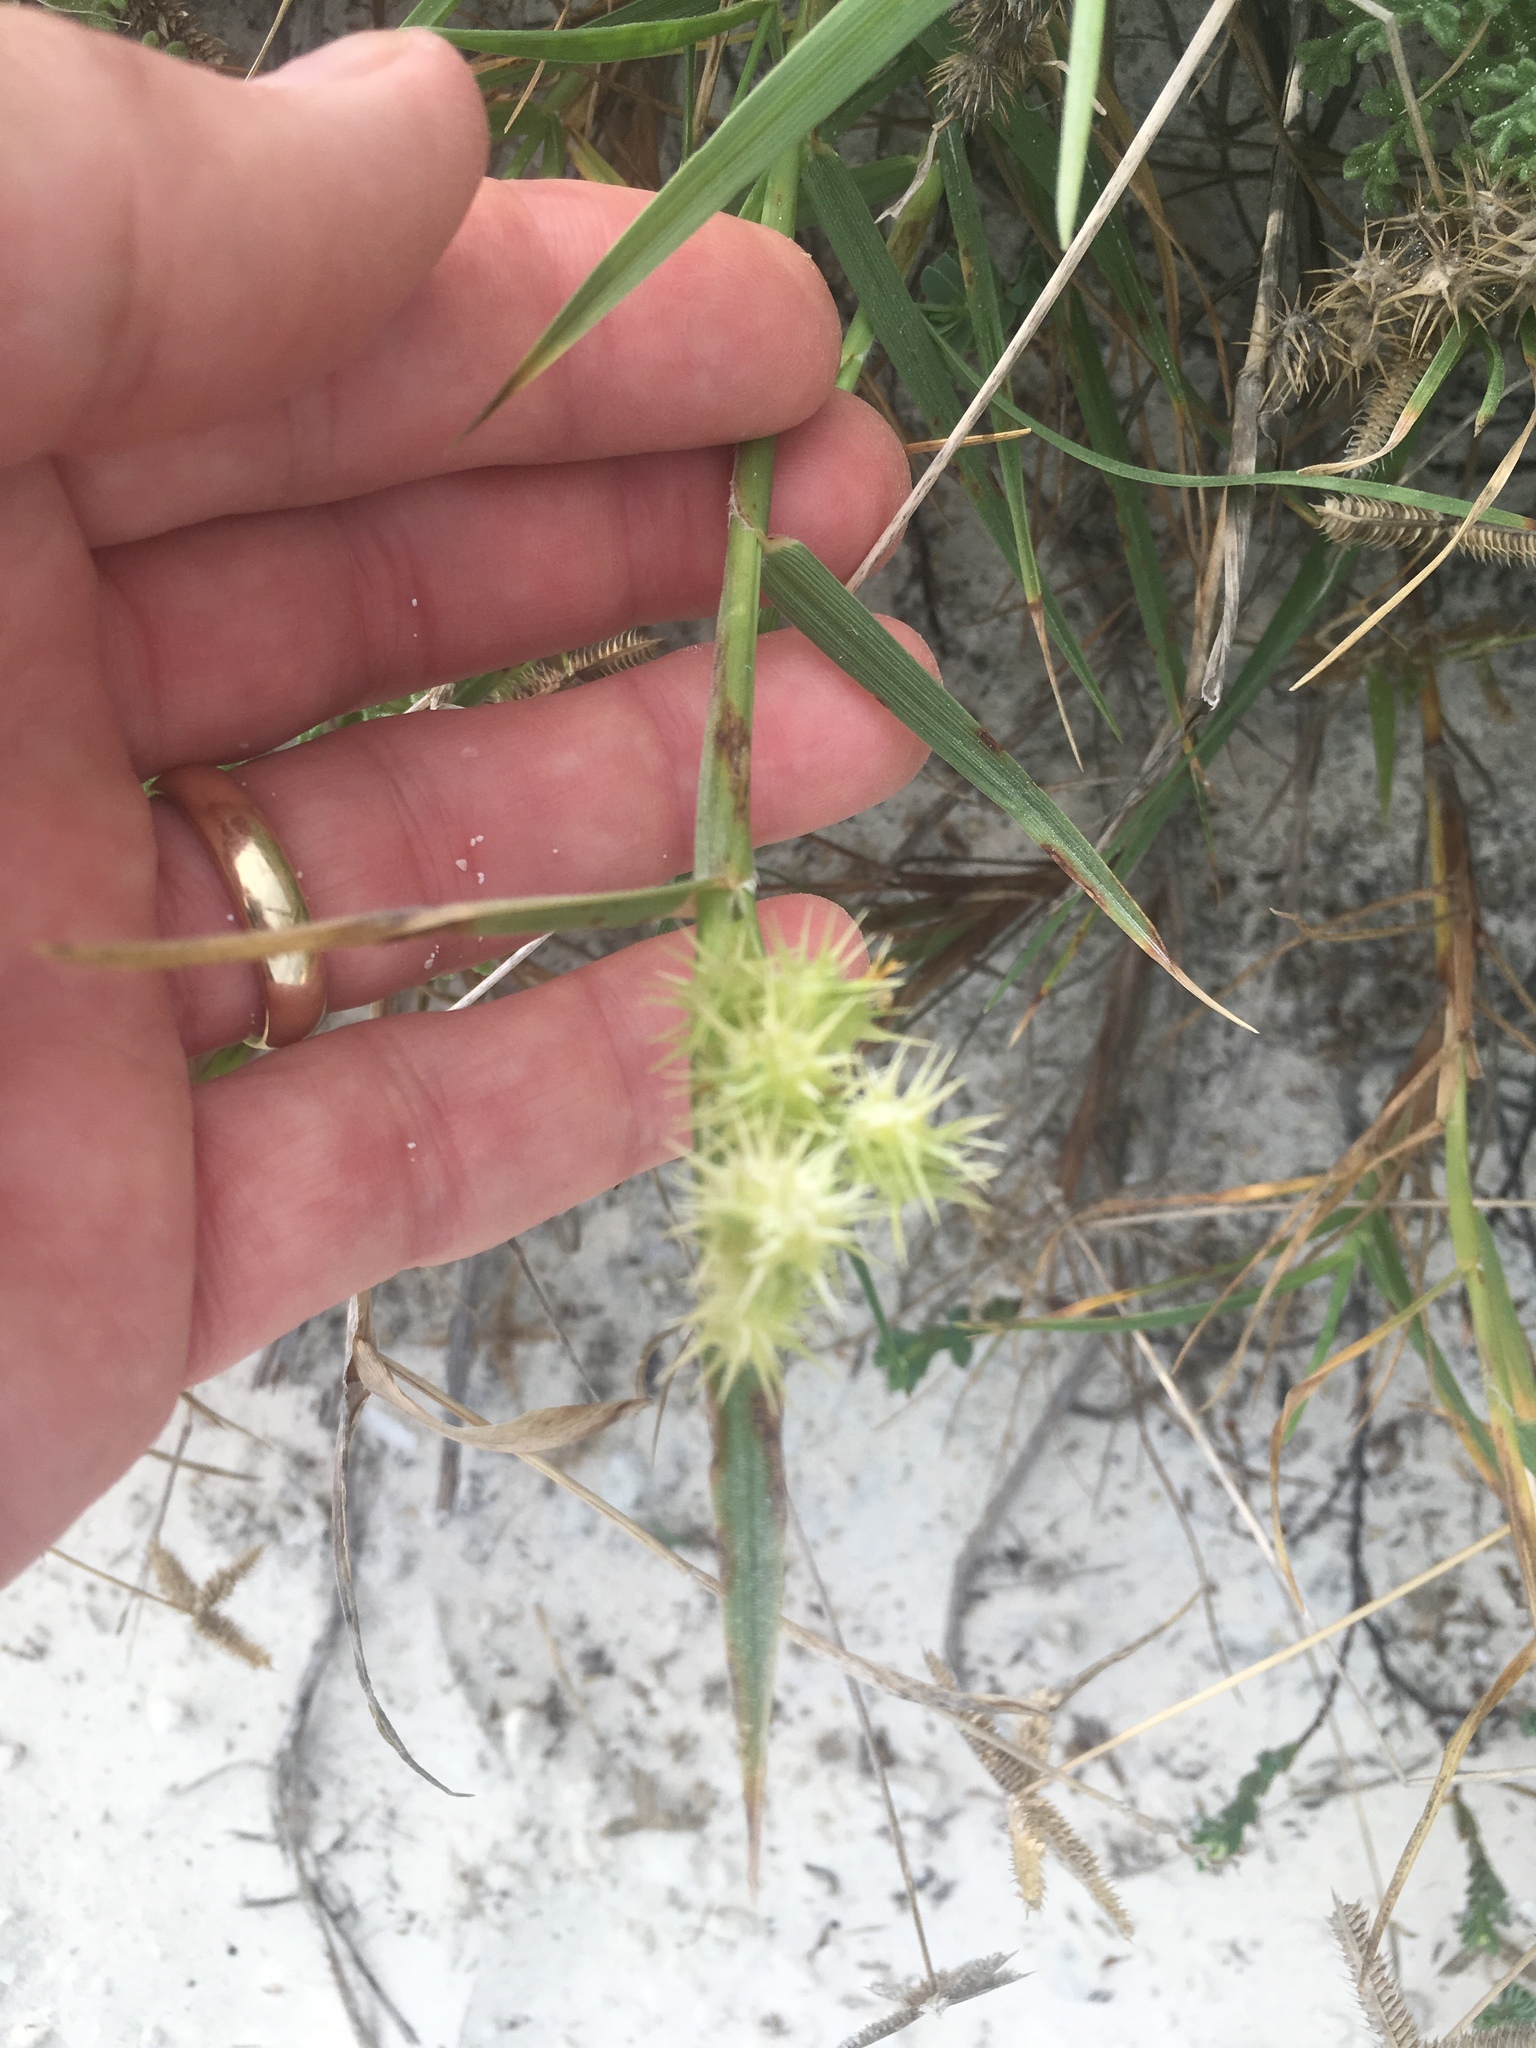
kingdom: Plantae
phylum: Tracheophyta
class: Liliopsida
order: Poales
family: Poaceae
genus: Cenchrus
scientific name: Cenchrus echinatus
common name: Southern sandbur
